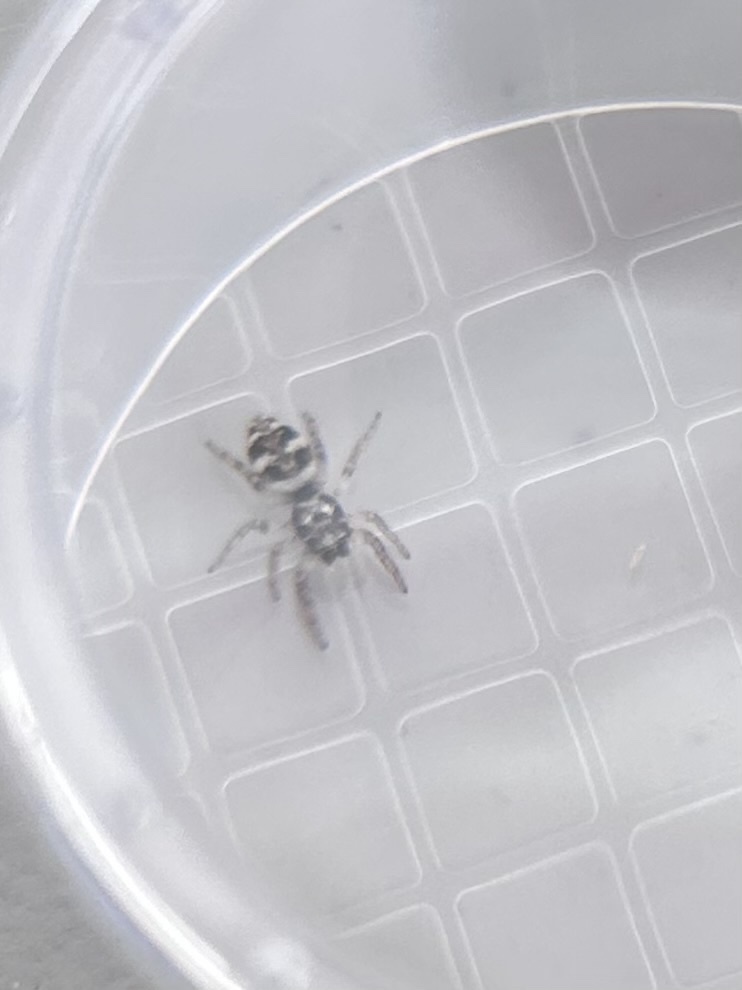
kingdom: Animalia
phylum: Arthropoda
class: Arachnida
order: Araneae
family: Salticidae
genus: Salticus
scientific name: Salticus scenicus
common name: Zebra jumper
